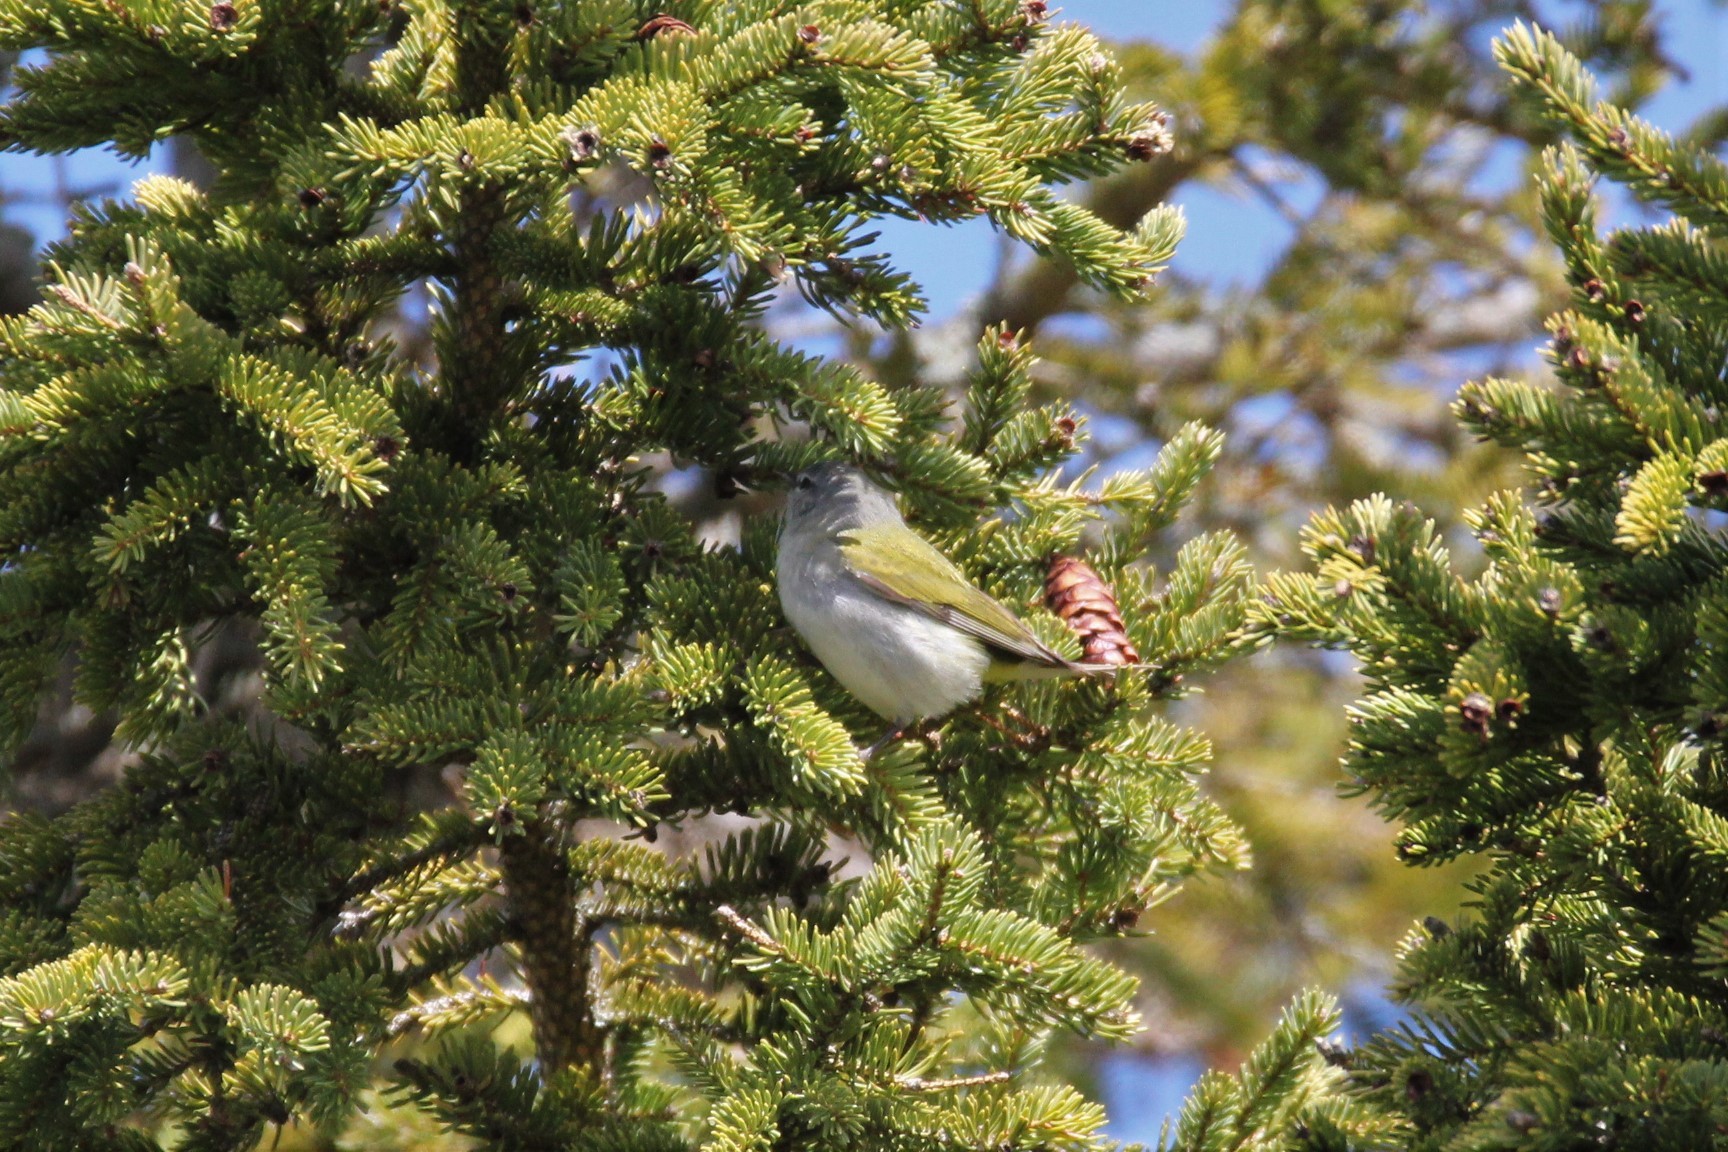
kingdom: Animalia
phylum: Chordata
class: Aves
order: Passeriformes
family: Parulidae
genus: Leiothlypis
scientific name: Leiothlypis peregrina
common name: Tennessee warbler
